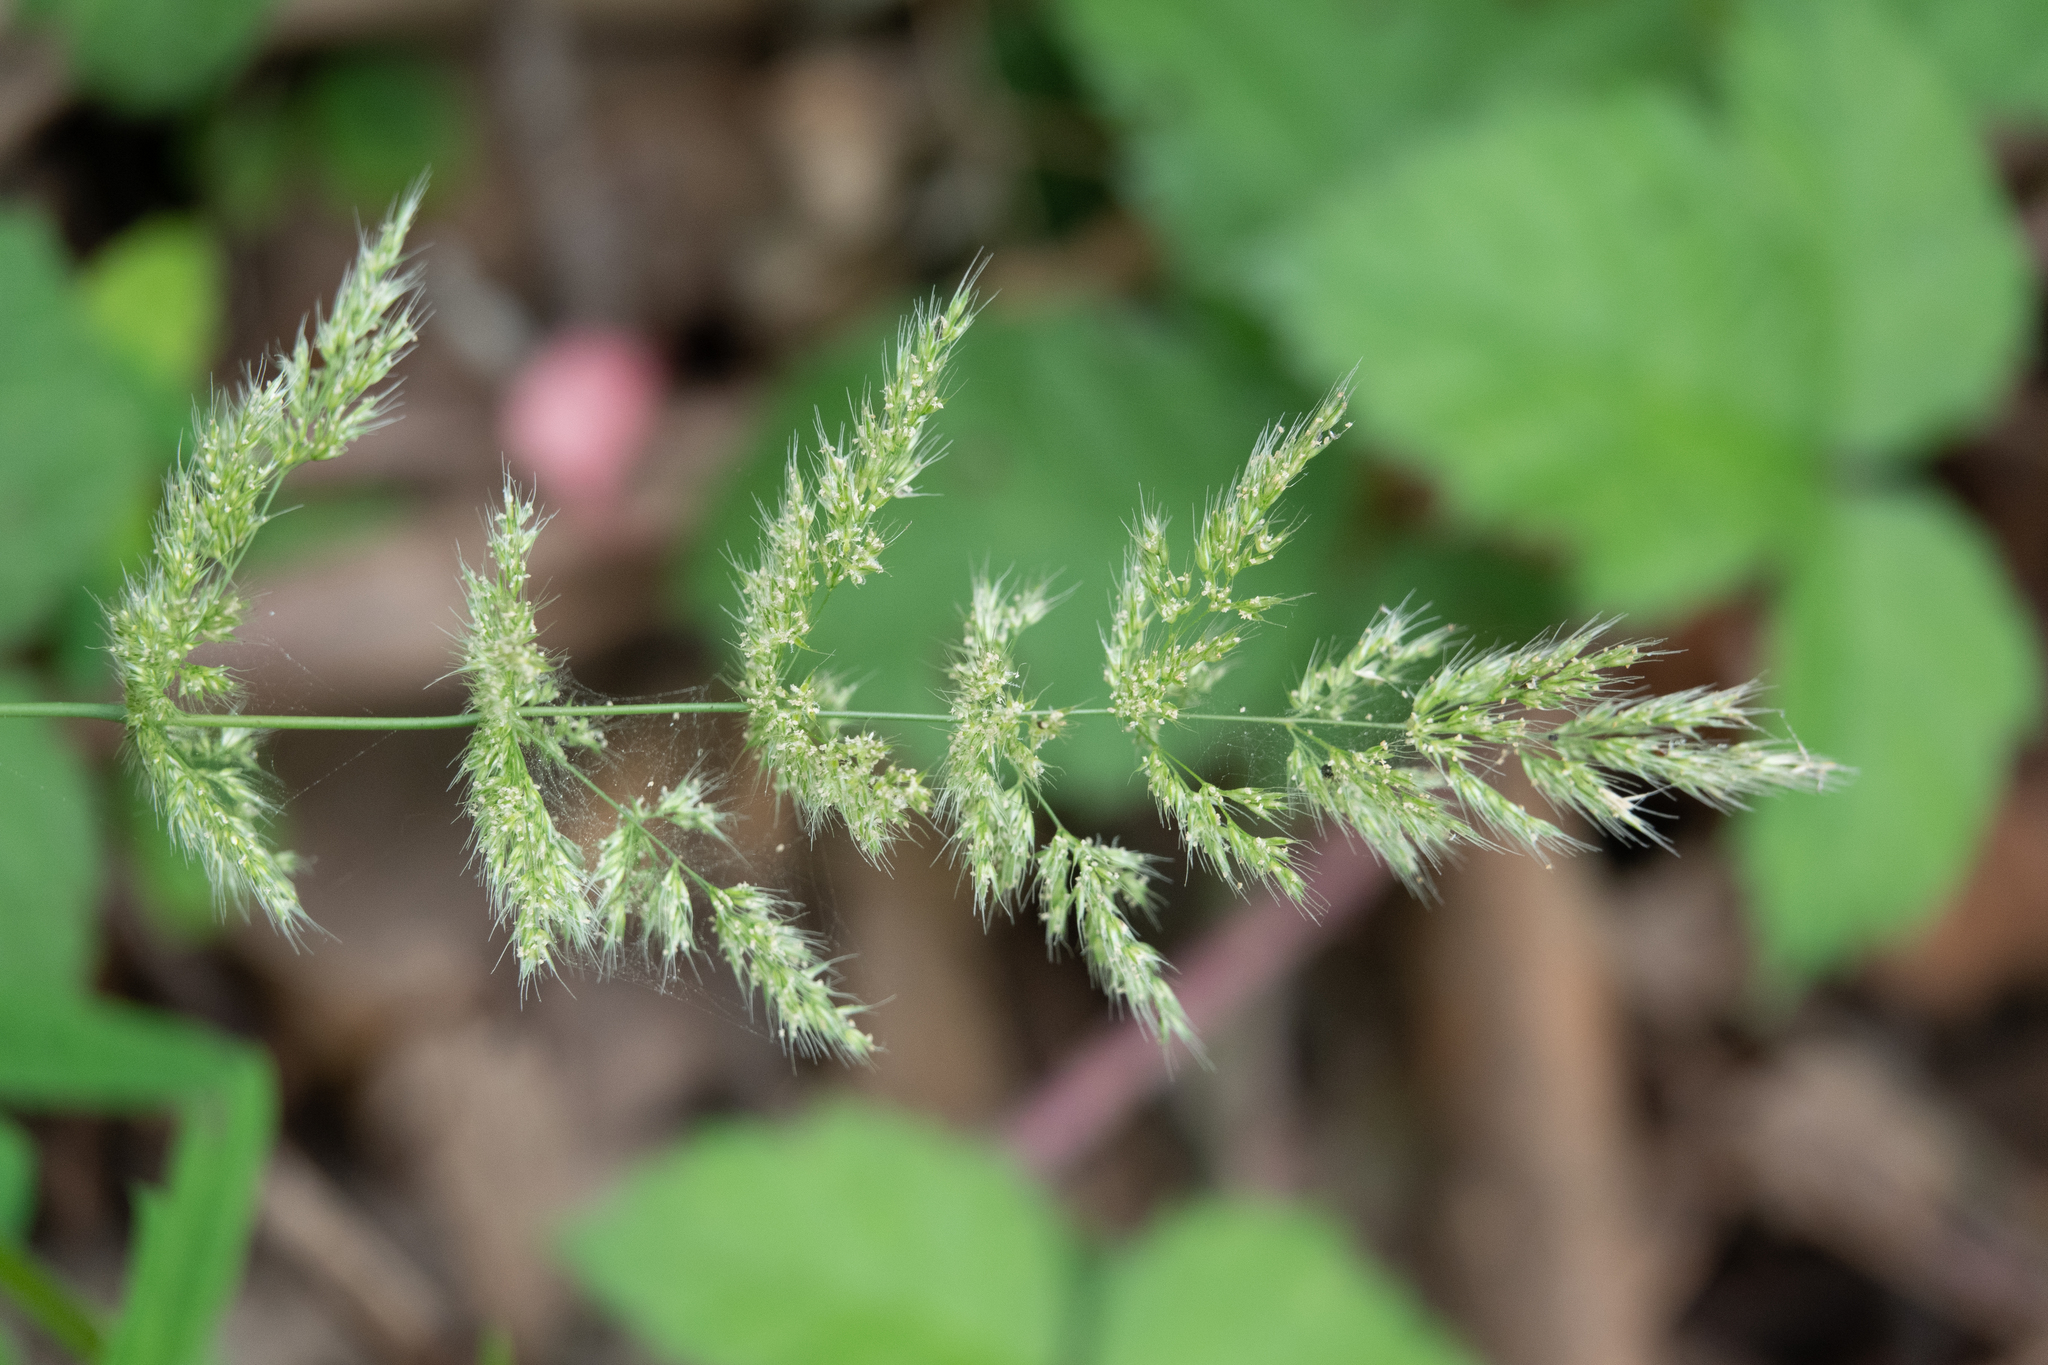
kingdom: Plantae
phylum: Tracheophyta
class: Liliopsida
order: Poales
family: Poaceae
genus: Polypogon
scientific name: Polypogon interruptus
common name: Ditch polypogon
